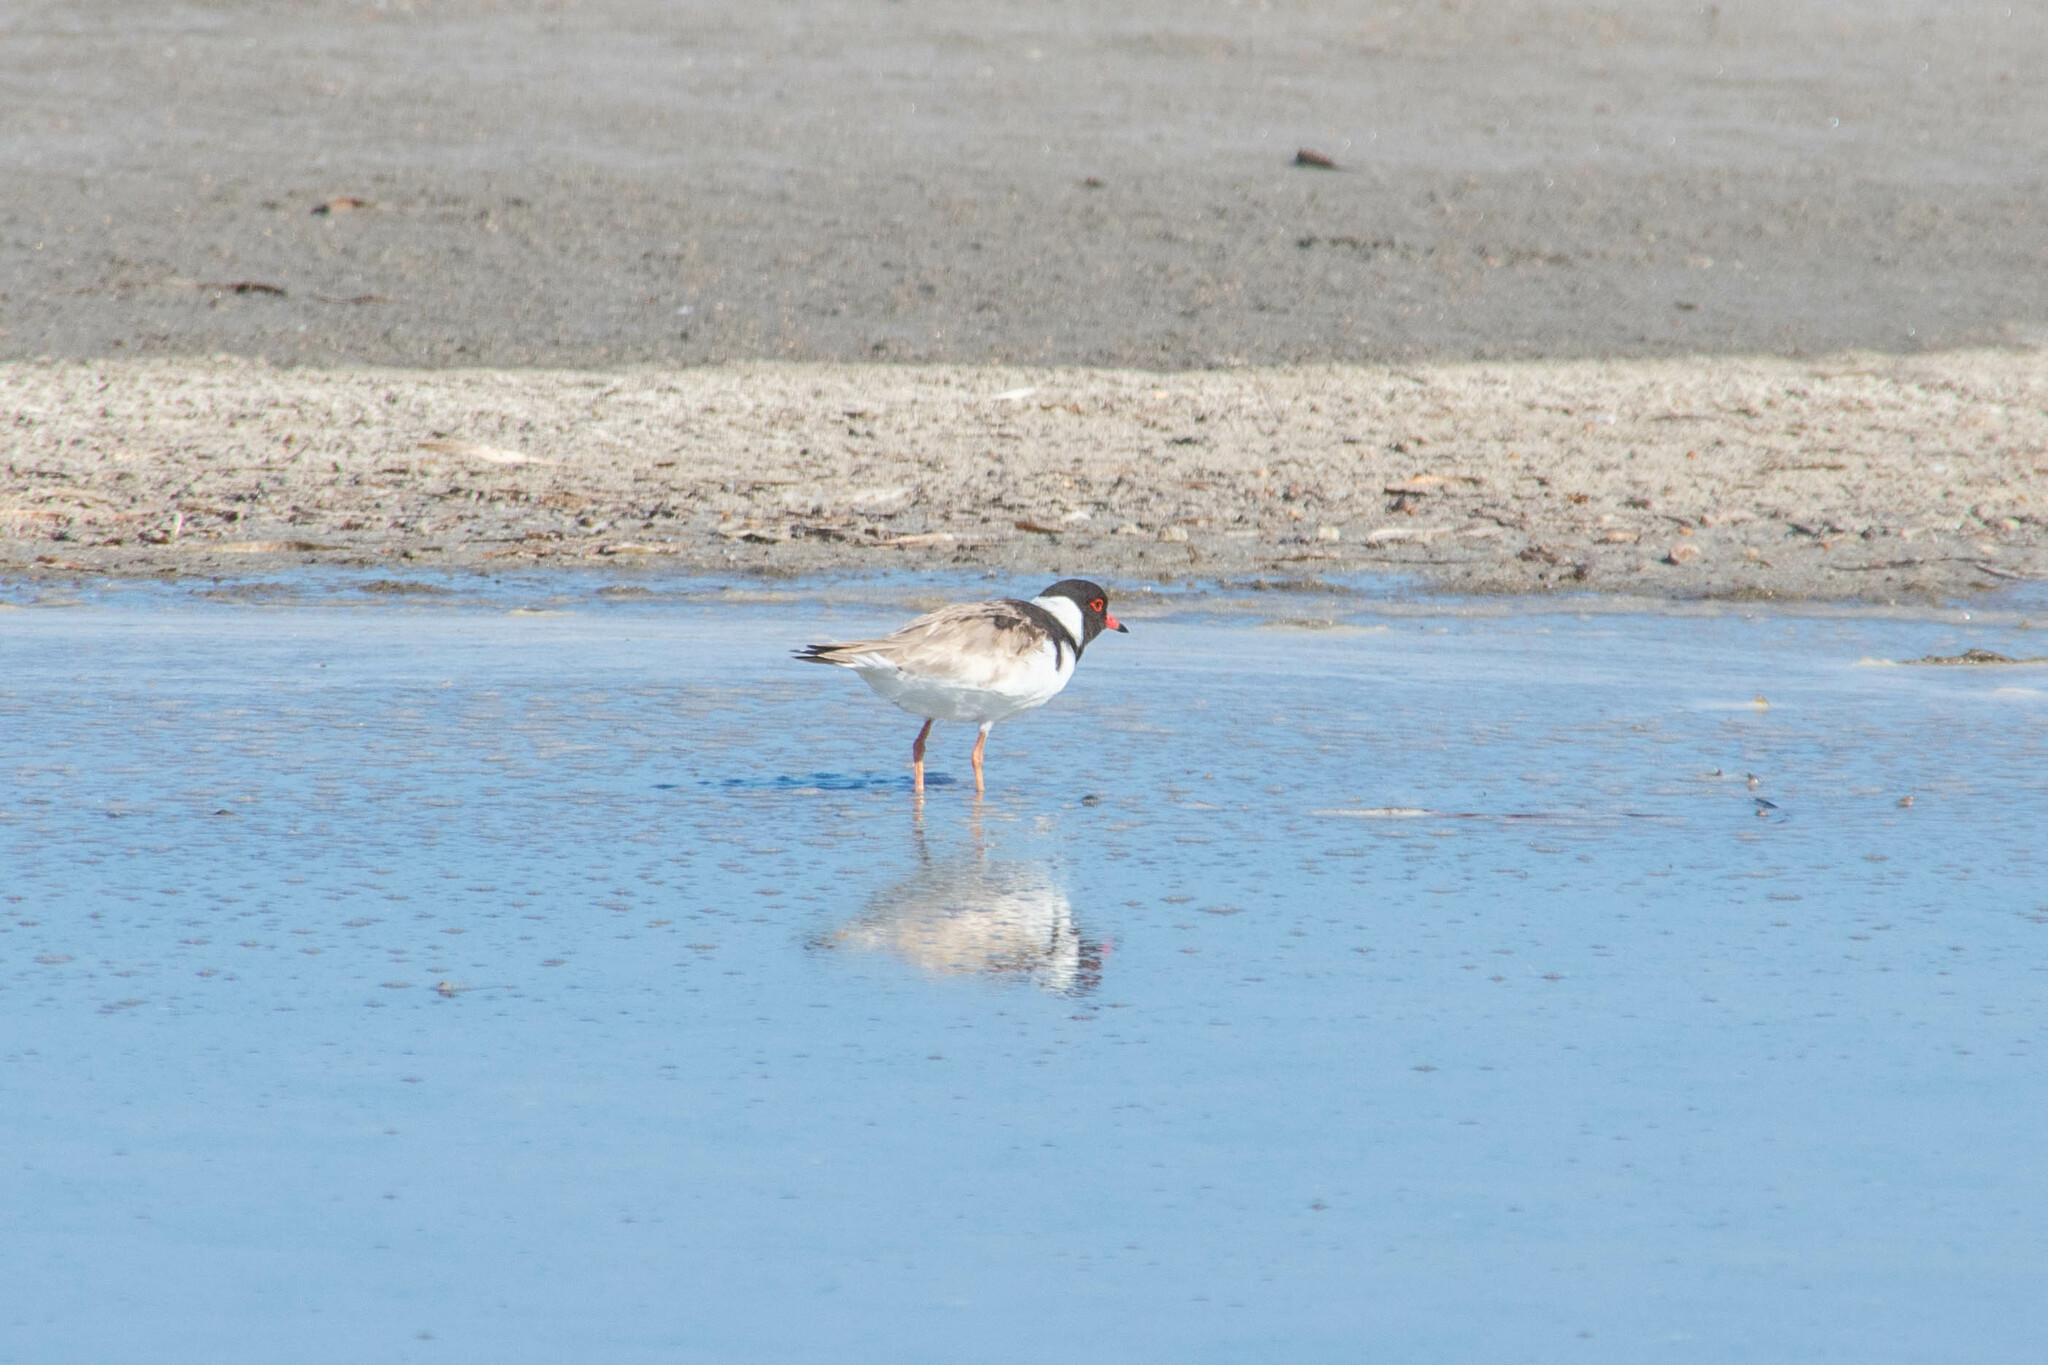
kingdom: Animalia
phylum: Chordata
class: Aves
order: Charadriiformes
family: Charadriidae
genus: Thinornis
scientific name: Thinornis cucullatus
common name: Hooded dotterel
